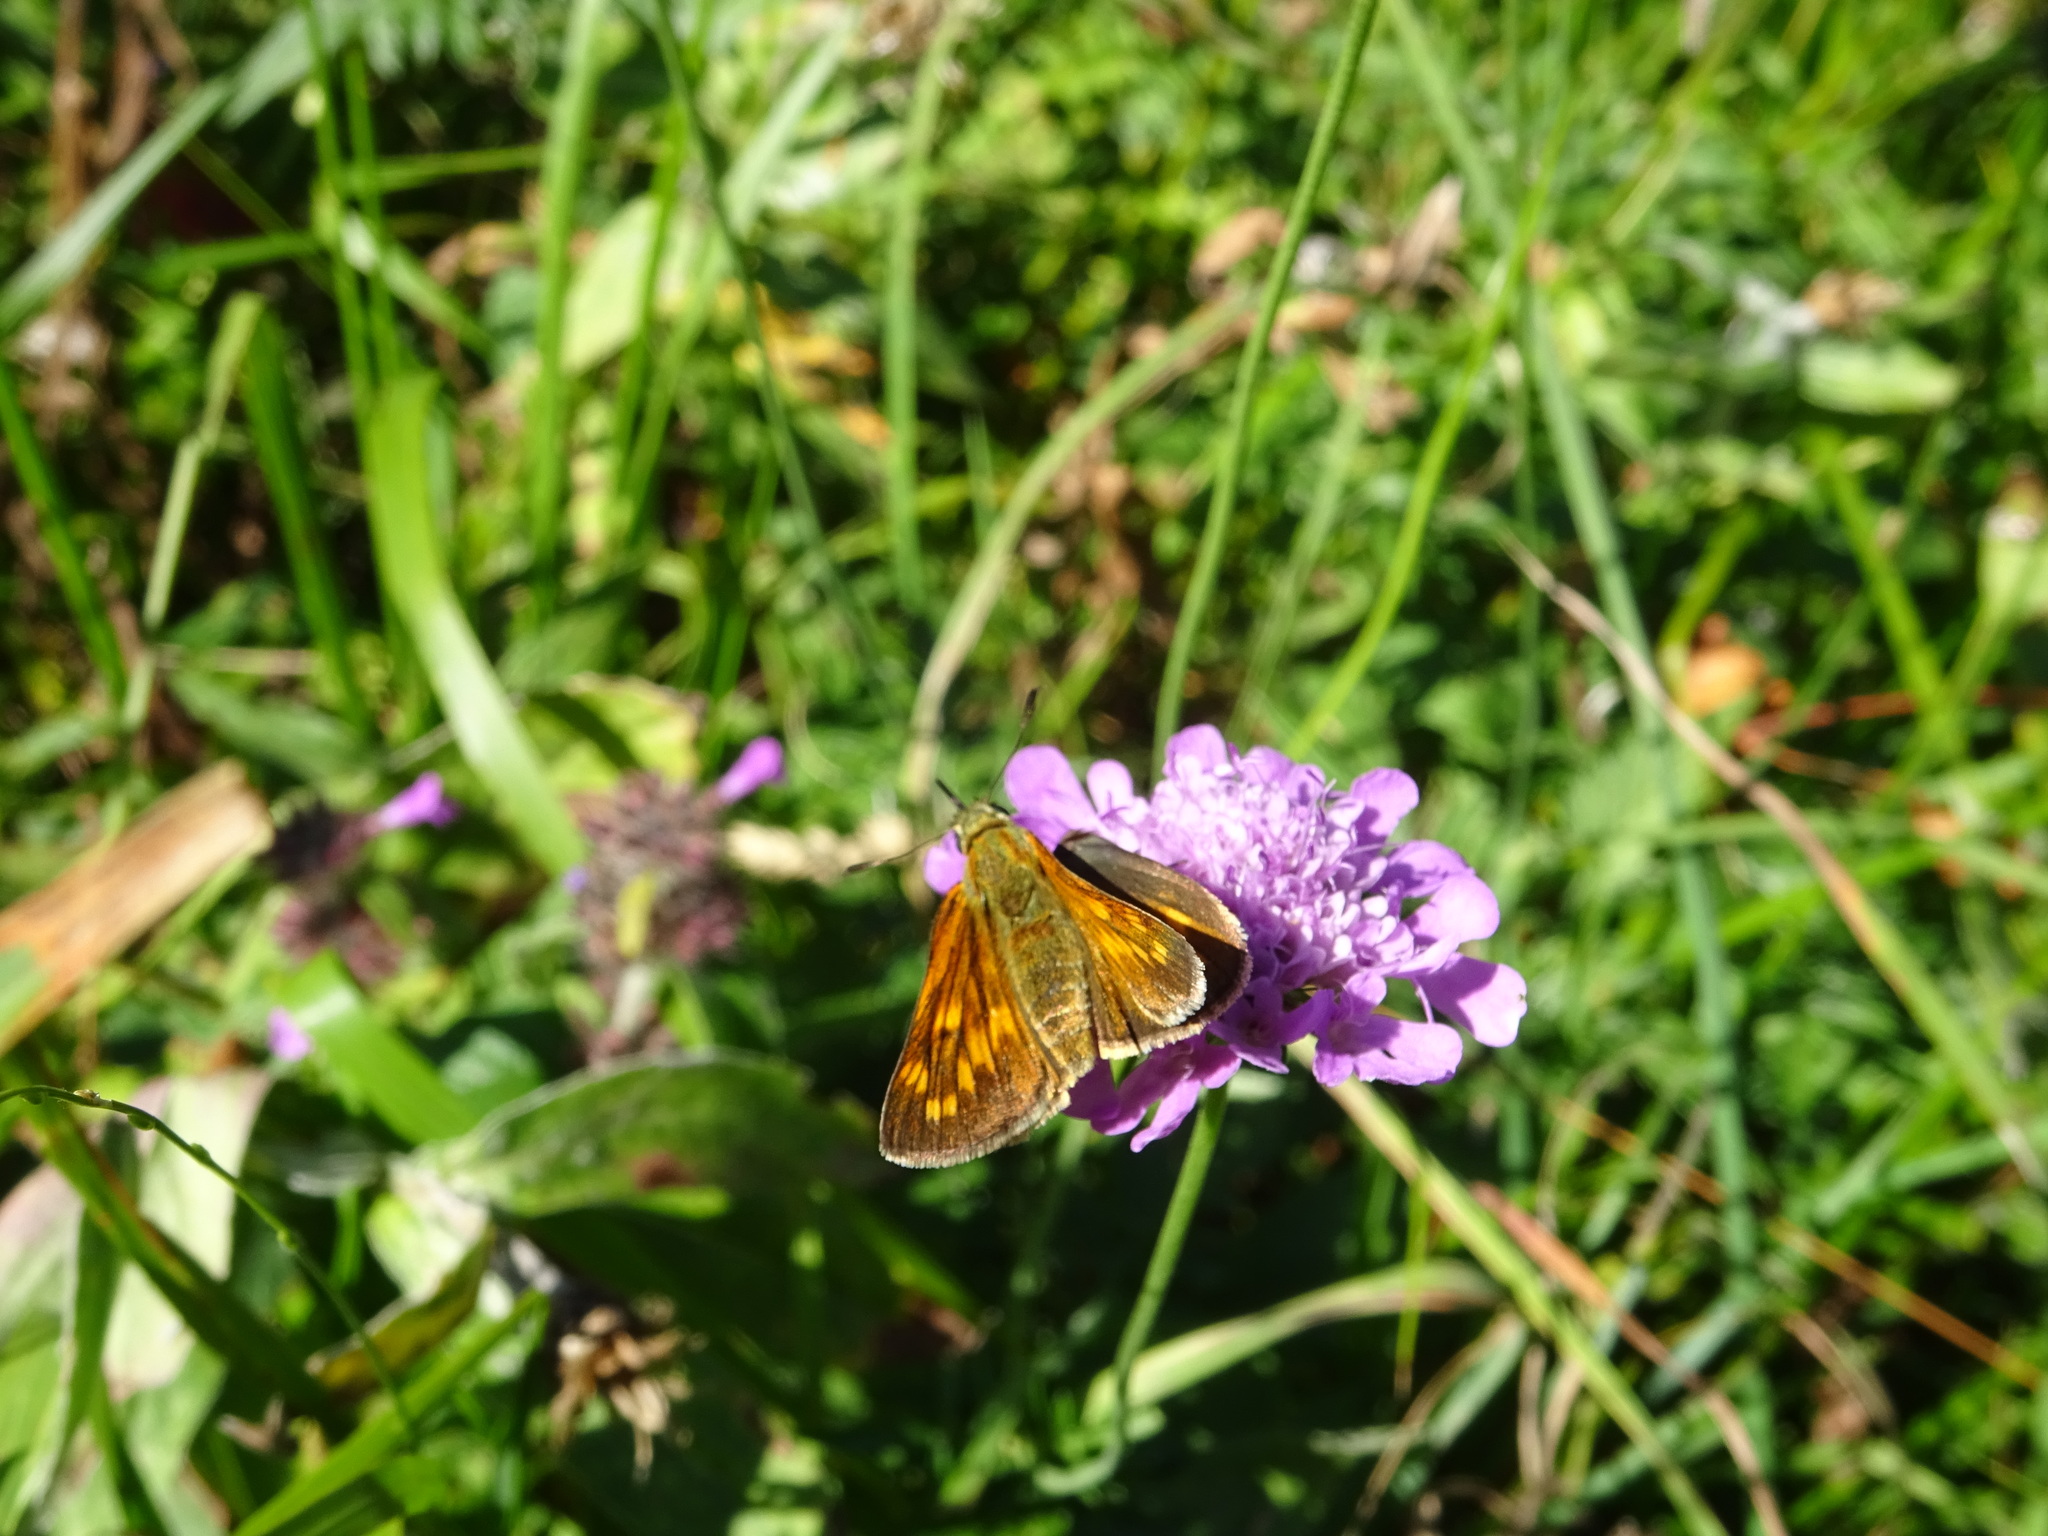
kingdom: Animalia
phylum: Arthropoda
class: Insecta
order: Lepidoptera
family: Hesperiidae
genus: Ochlodes
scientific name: Ochlodes venata
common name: Large skipper
